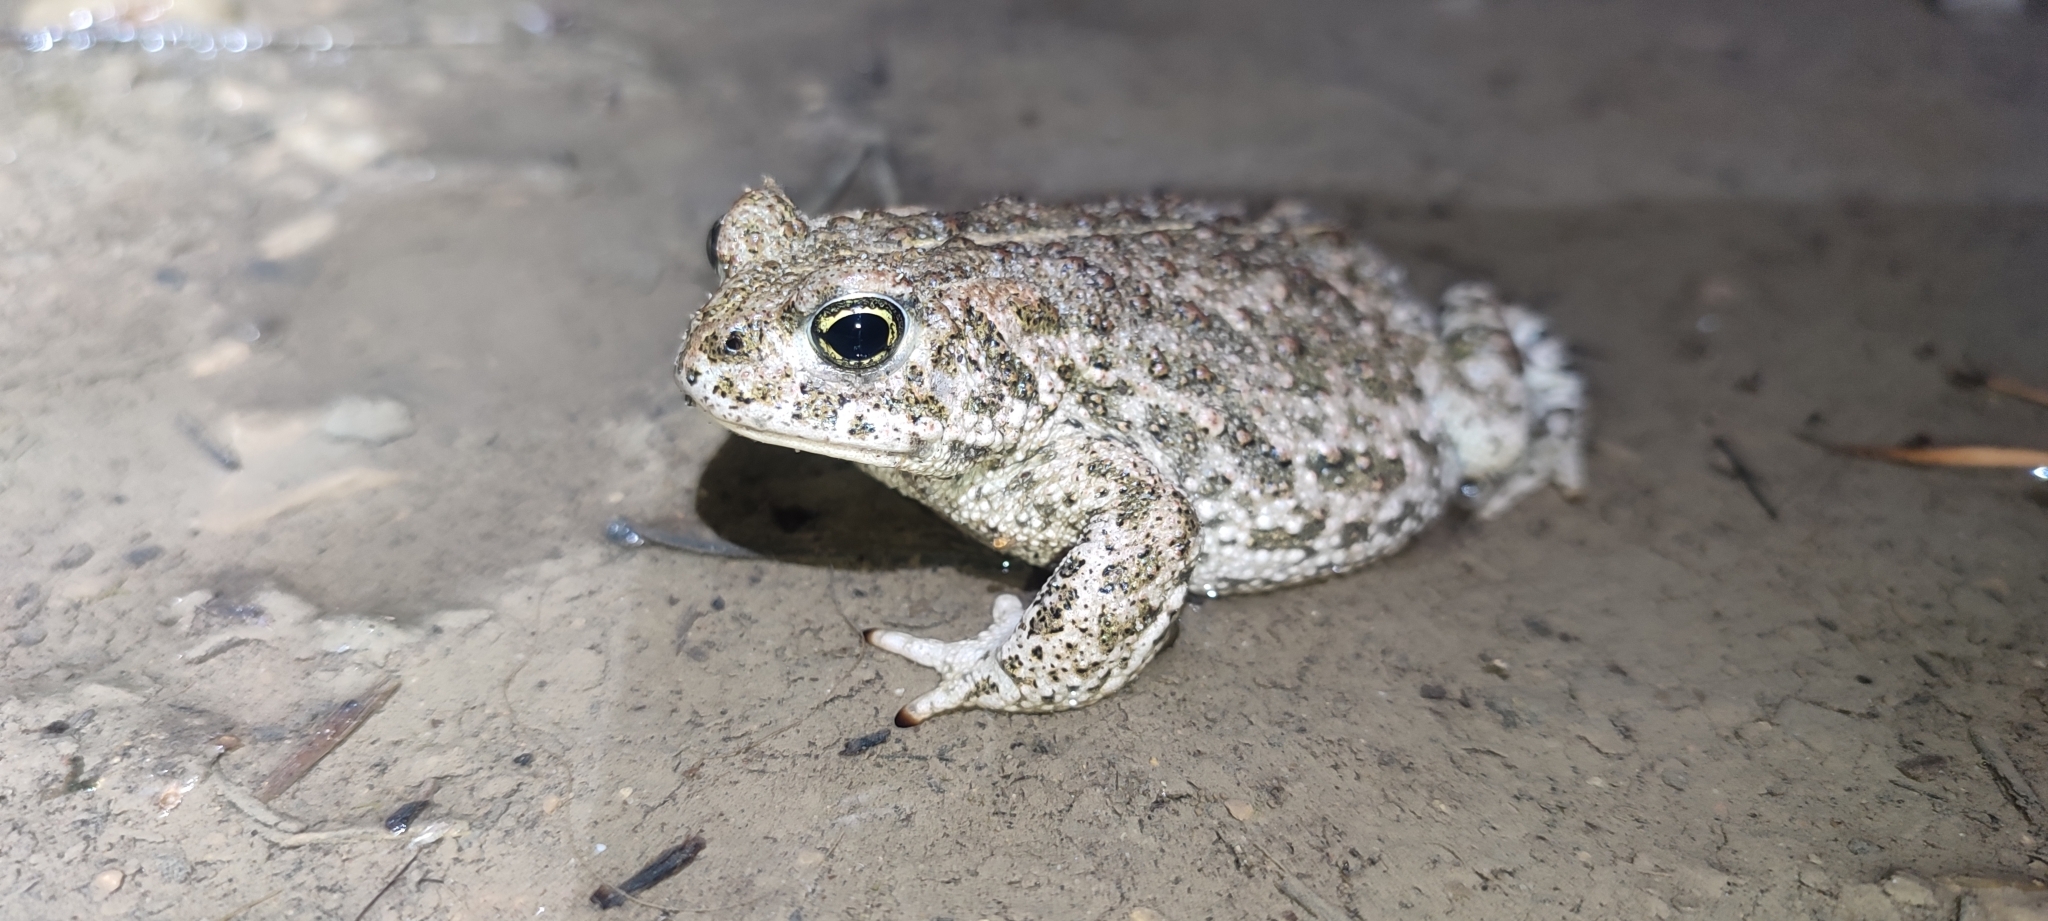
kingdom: Animalia
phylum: Chordata
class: Amphibia
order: Anura
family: Bufonidae
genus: Epidalea
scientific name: Epidalea calamita
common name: Natterjack toad
